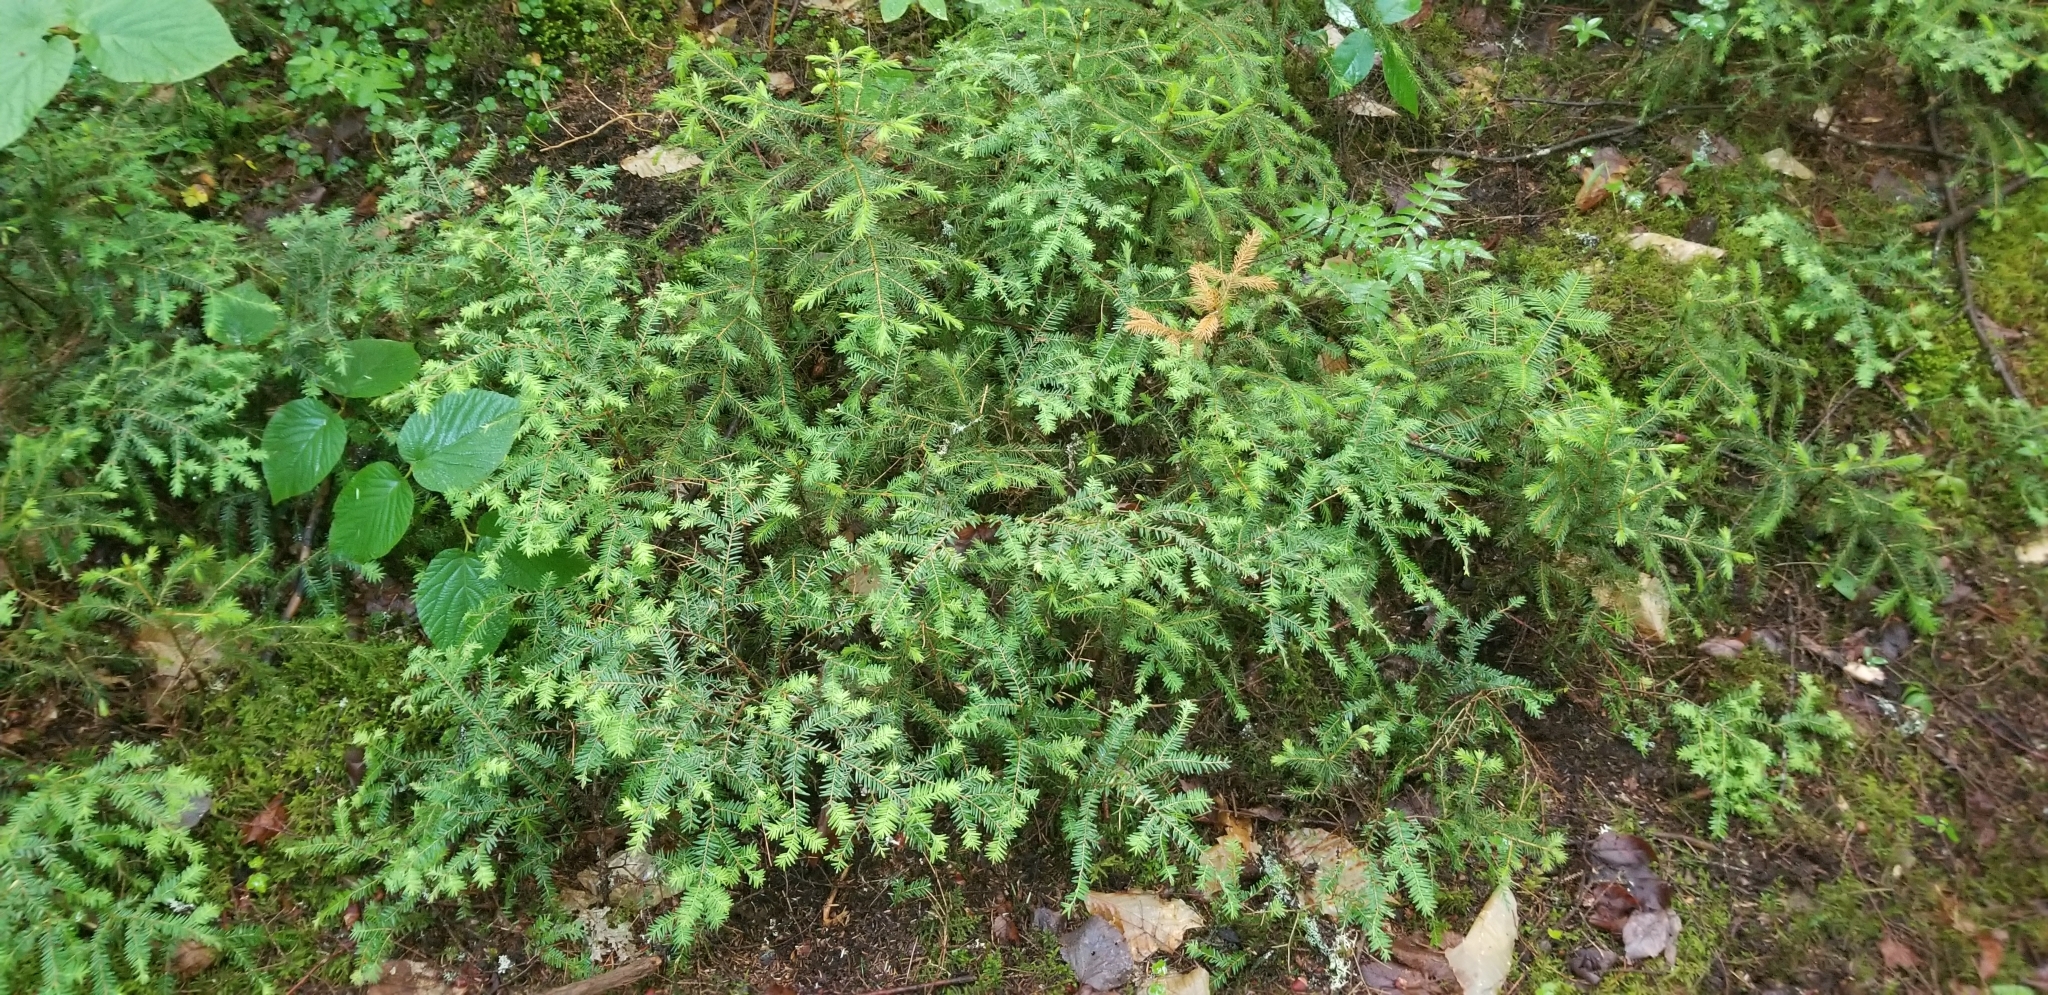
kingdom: Plantae
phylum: Tracheophyta
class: Pinopsida
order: Pinales
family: Pinaceae
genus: Tsuga
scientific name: Tsuga canadensis
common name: Eastern hemlock
